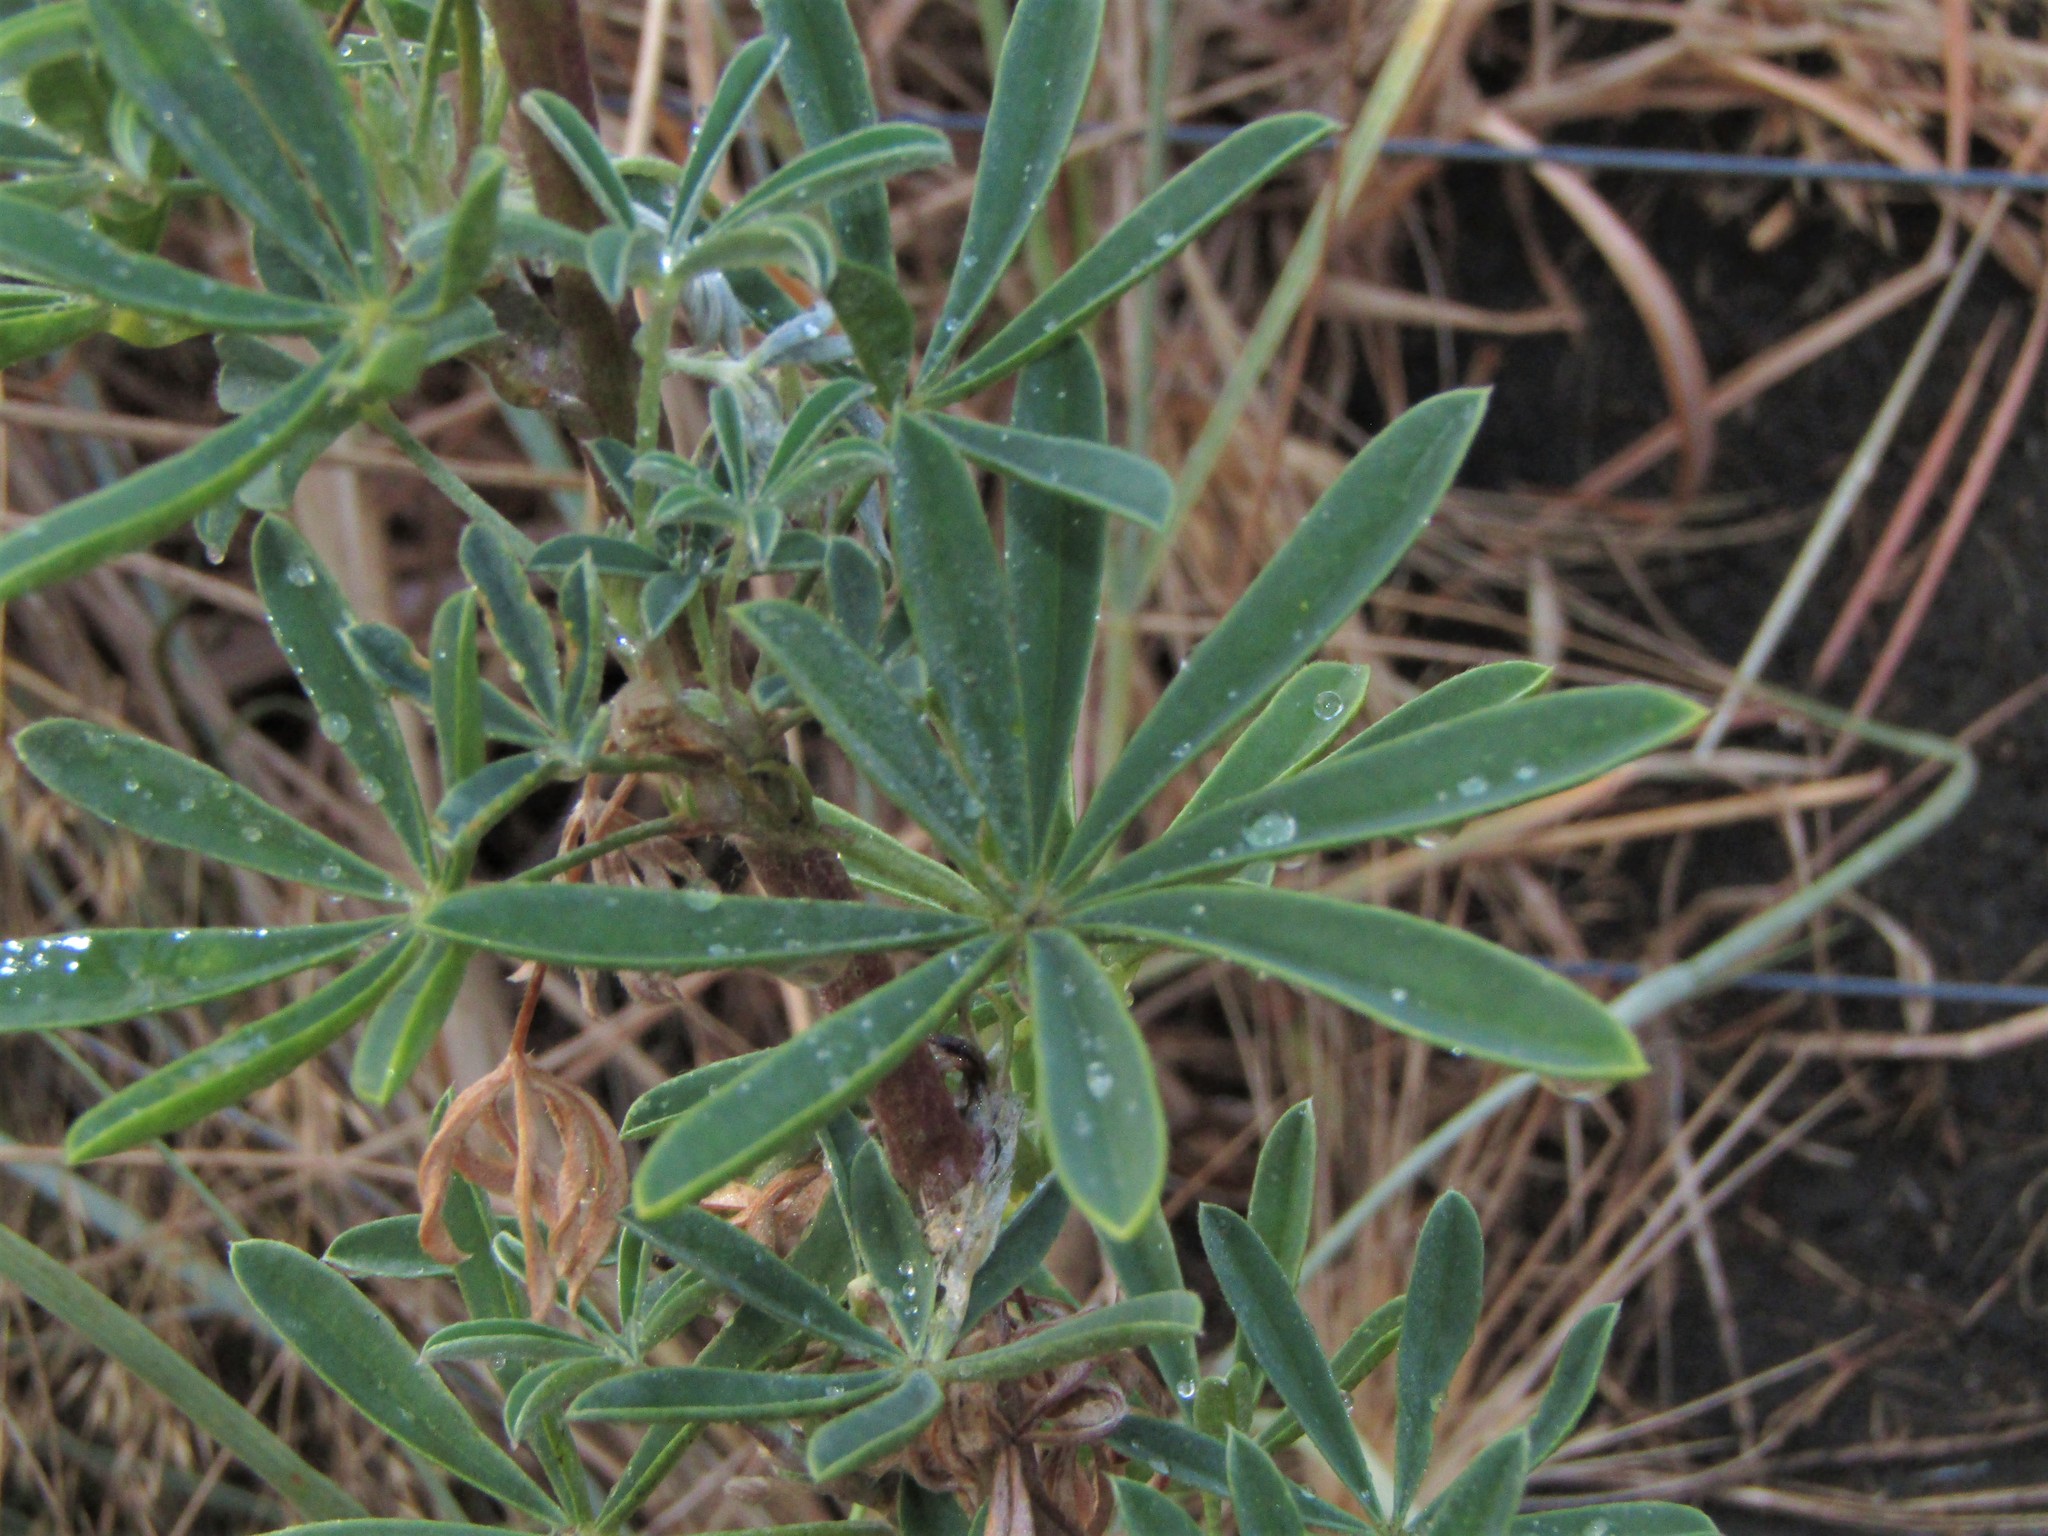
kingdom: Plantae
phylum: Tracheophyta
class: Magnoliopsida
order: Fabales
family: Fabaceae
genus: Lupinus
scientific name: Lupinus arboreus
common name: Yellow bush lupine
